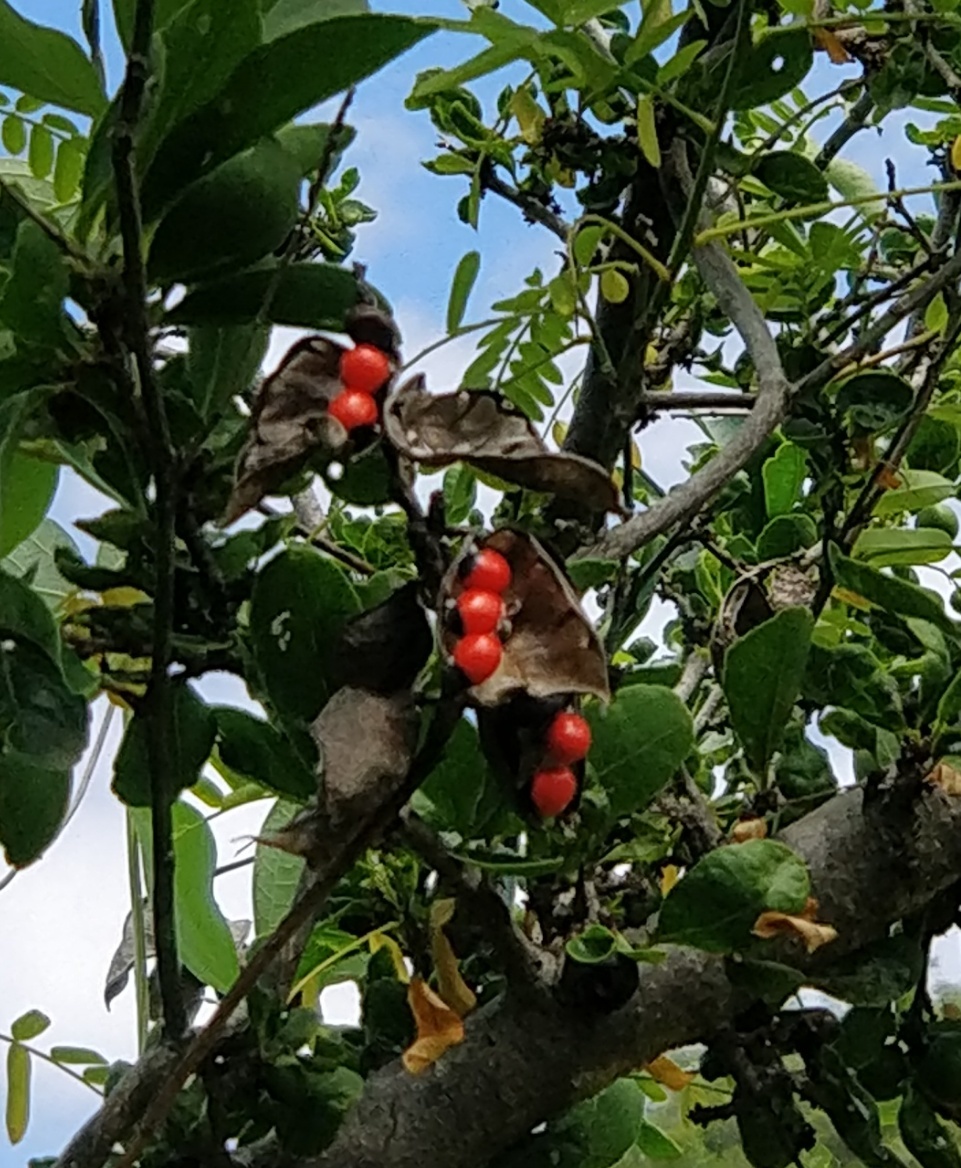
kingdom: Plantae
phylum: Tracheophyta
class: Magnoliopsida
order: Fabales
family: Fabaceae
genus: Abrus
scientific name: Abrus precatorius
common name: Rosarypea
